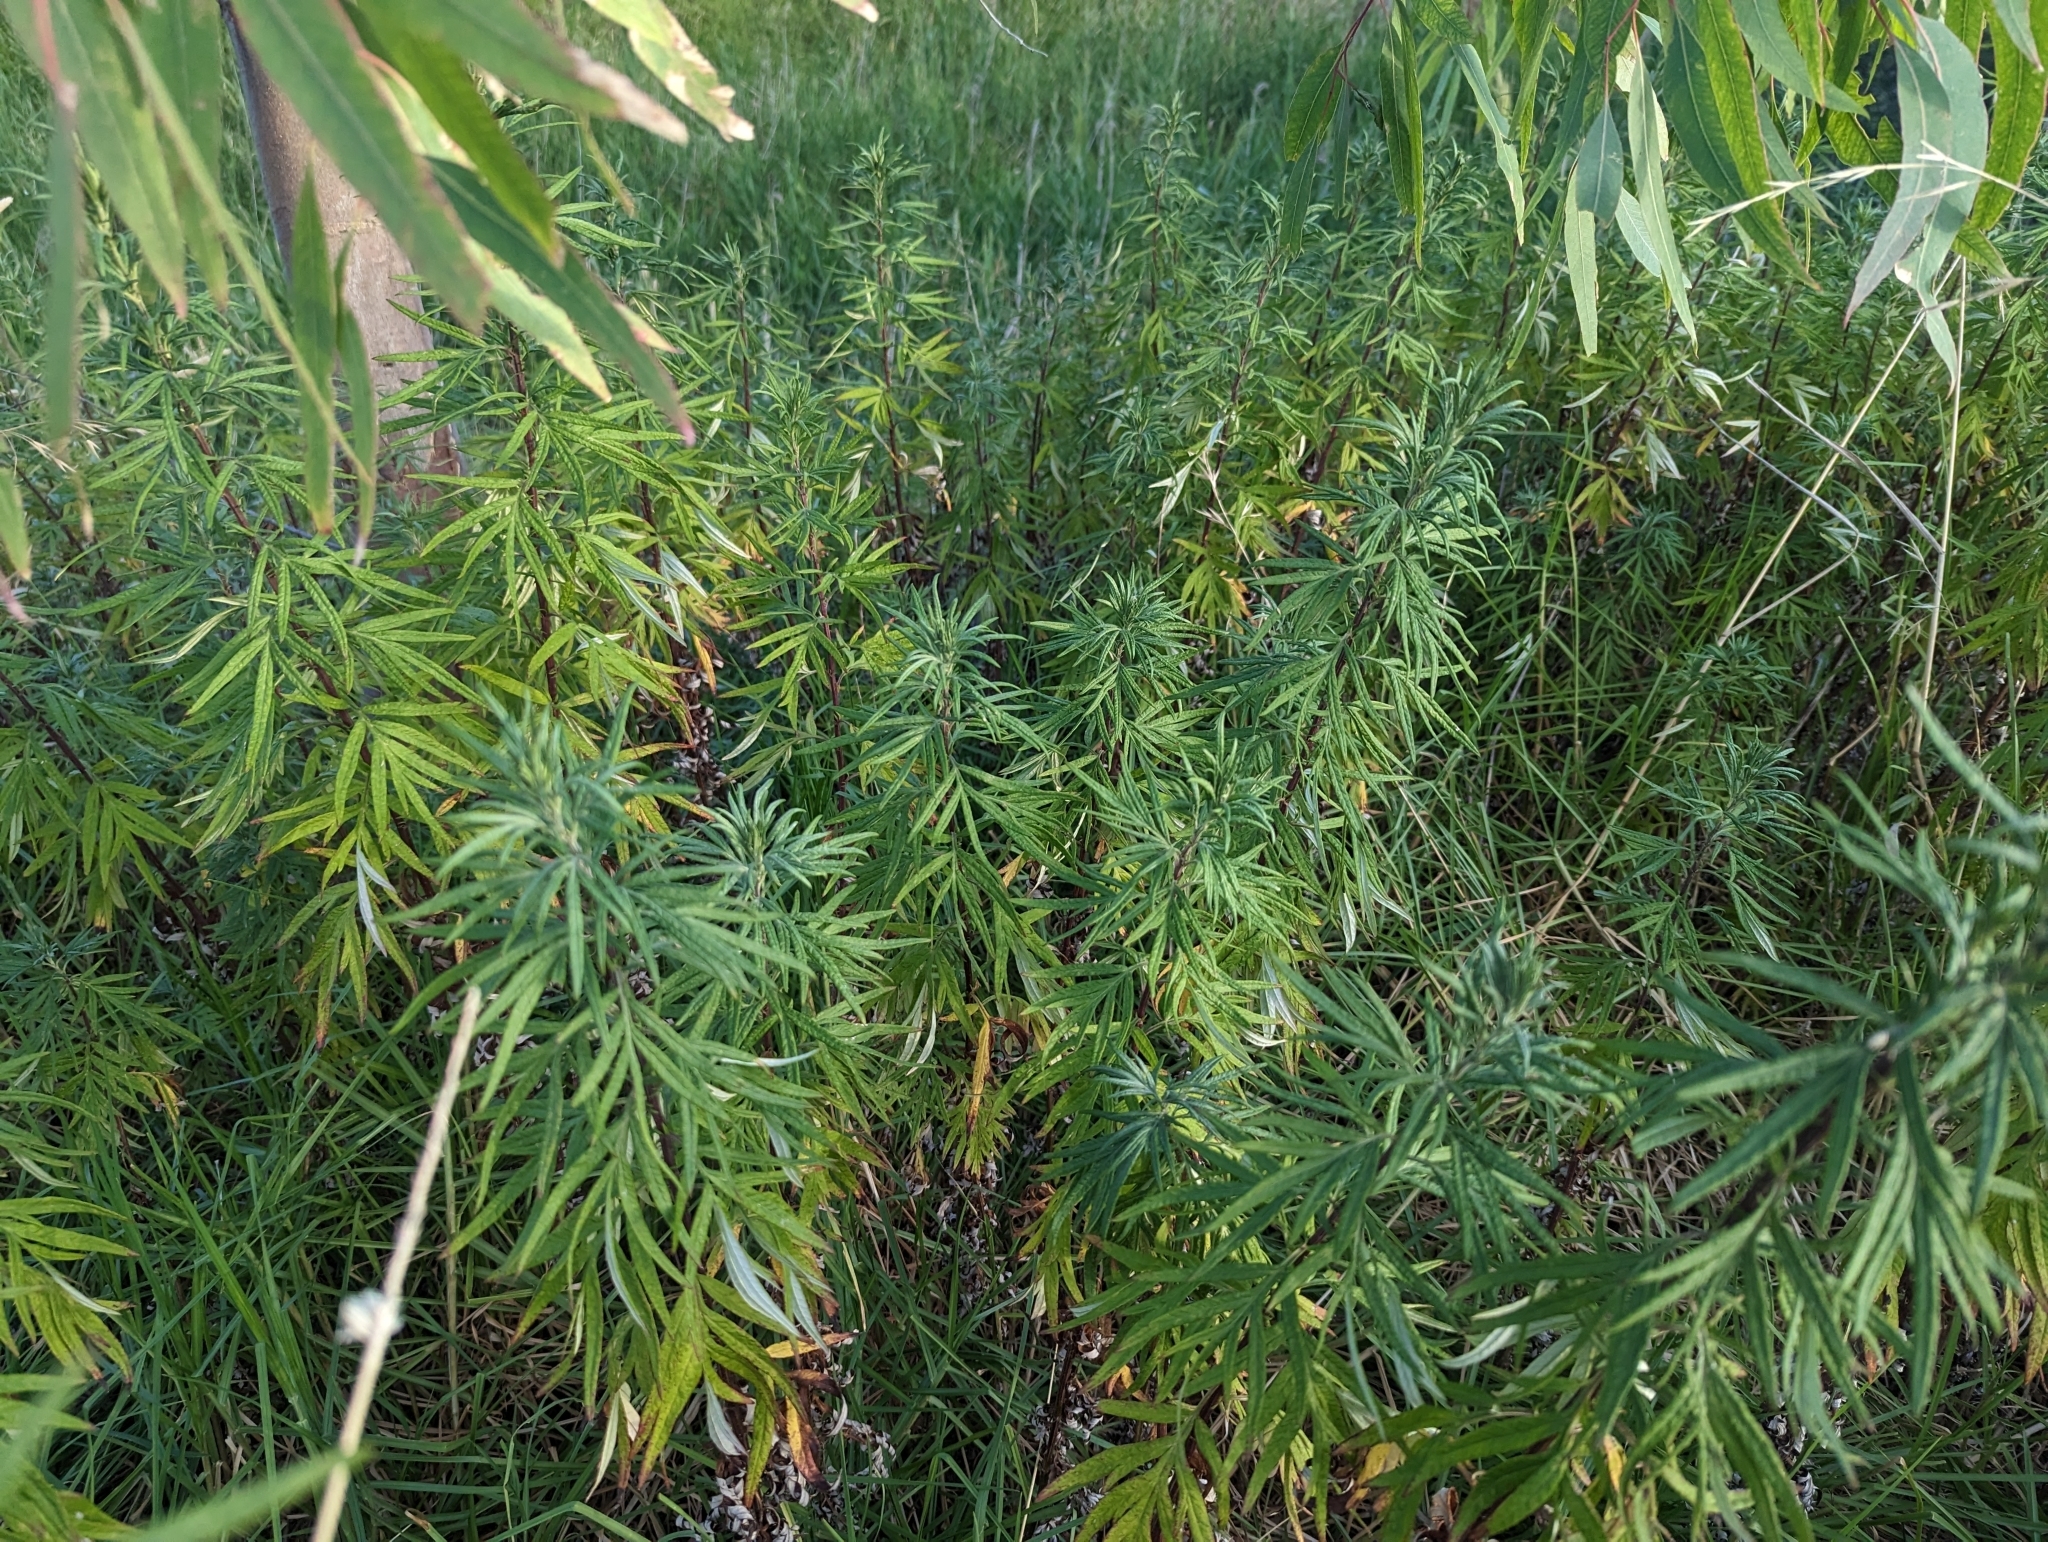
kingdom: Plantae
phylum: Tracheophyta
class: Magnoliopsida
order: Asterales
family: Asteraceae
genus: Artemisia
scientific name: Artemisia verlotiorum
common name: Chinese mugwort
